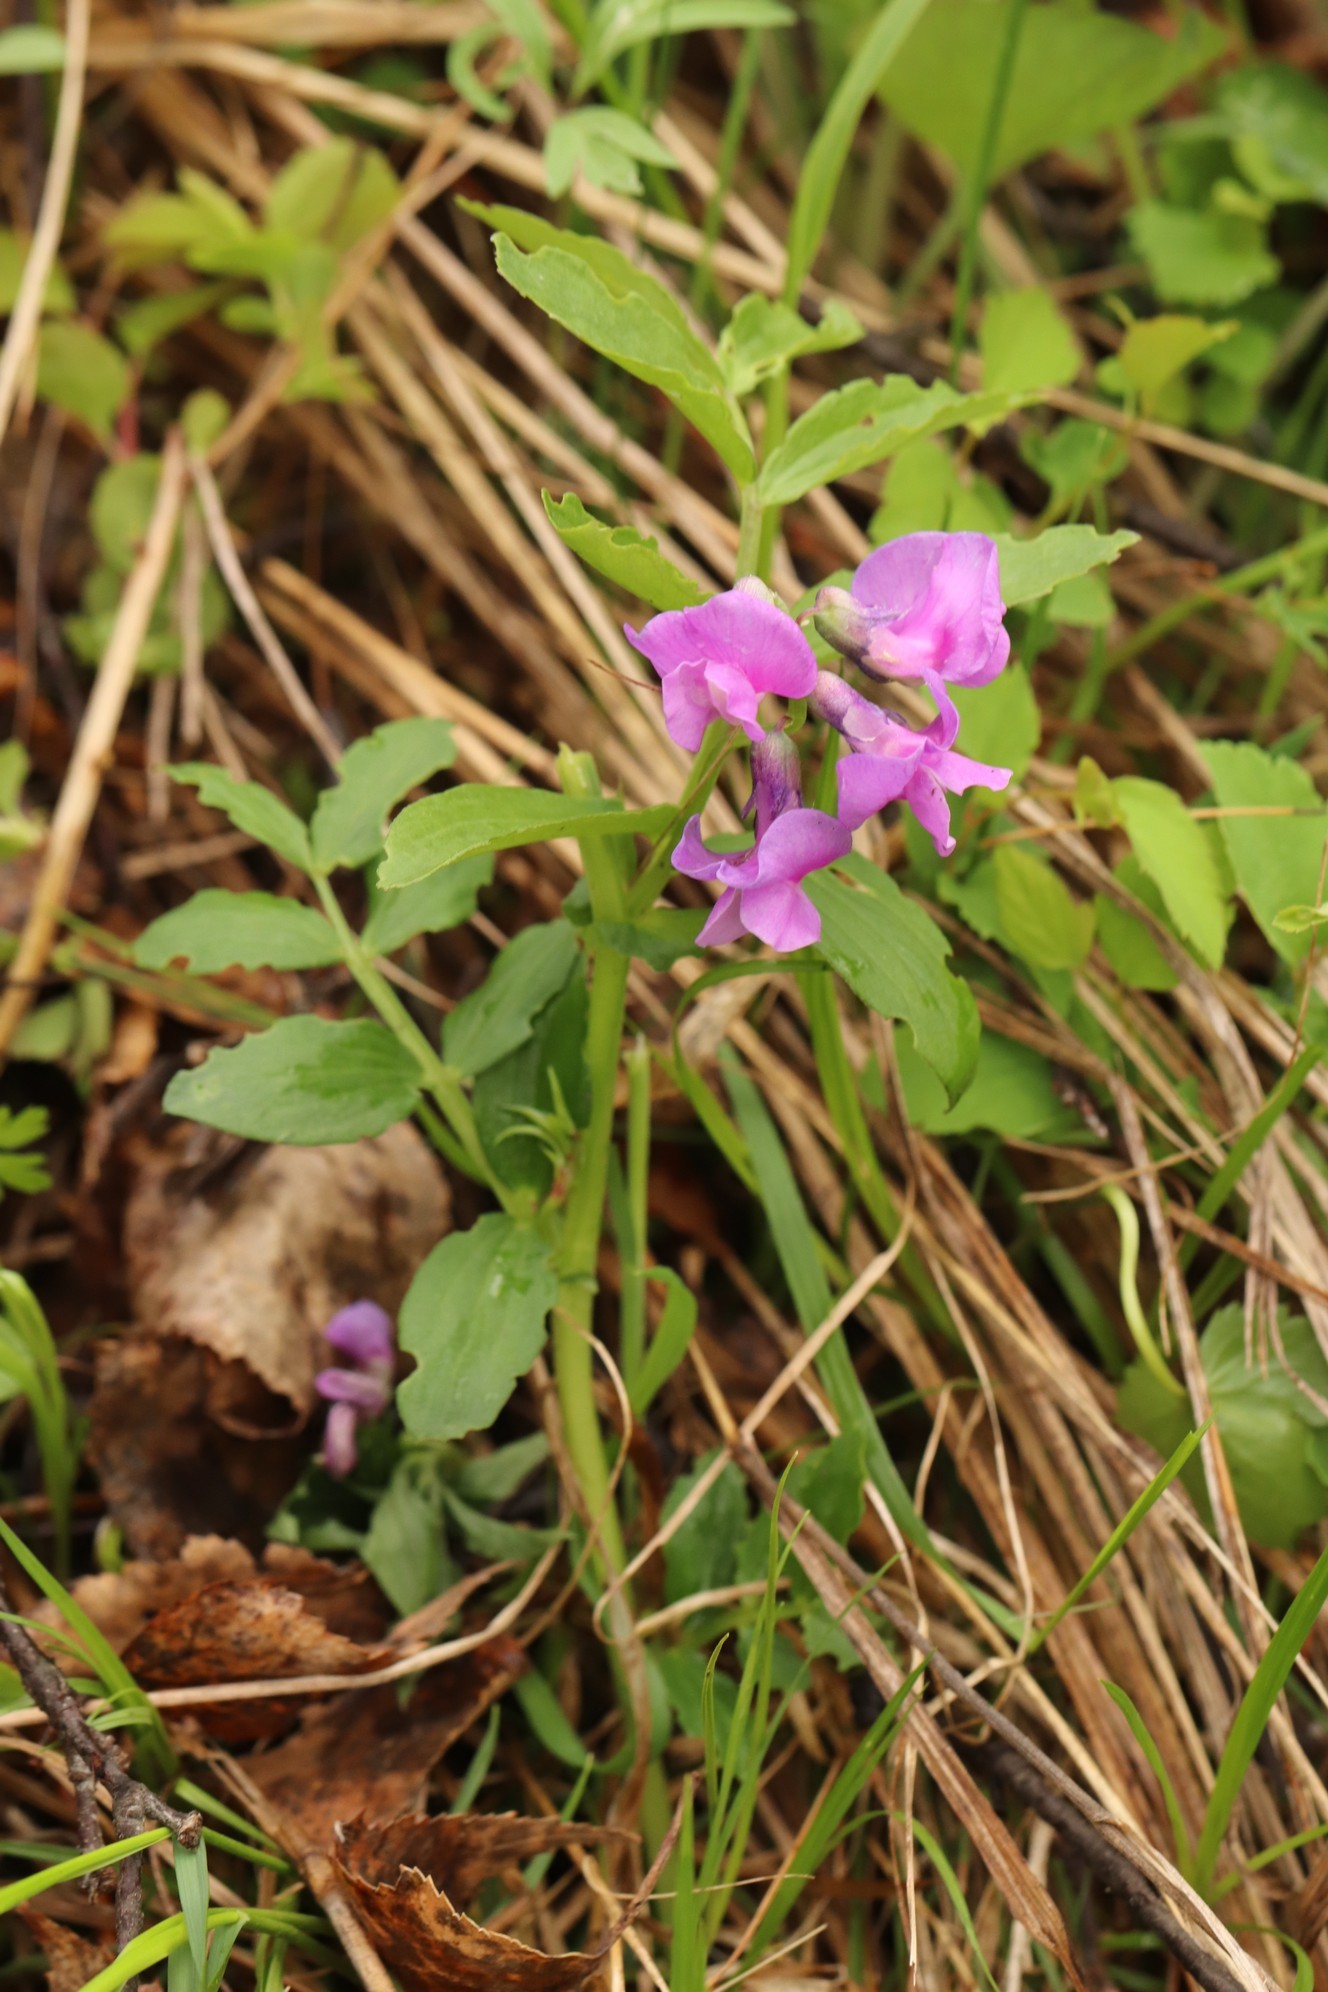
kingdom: Plantae
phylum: Tracheophyta
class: Magnoliopsida
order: Fabales
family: Fabaceae
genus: Lathyrus
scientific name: Lathyrus frolovii
